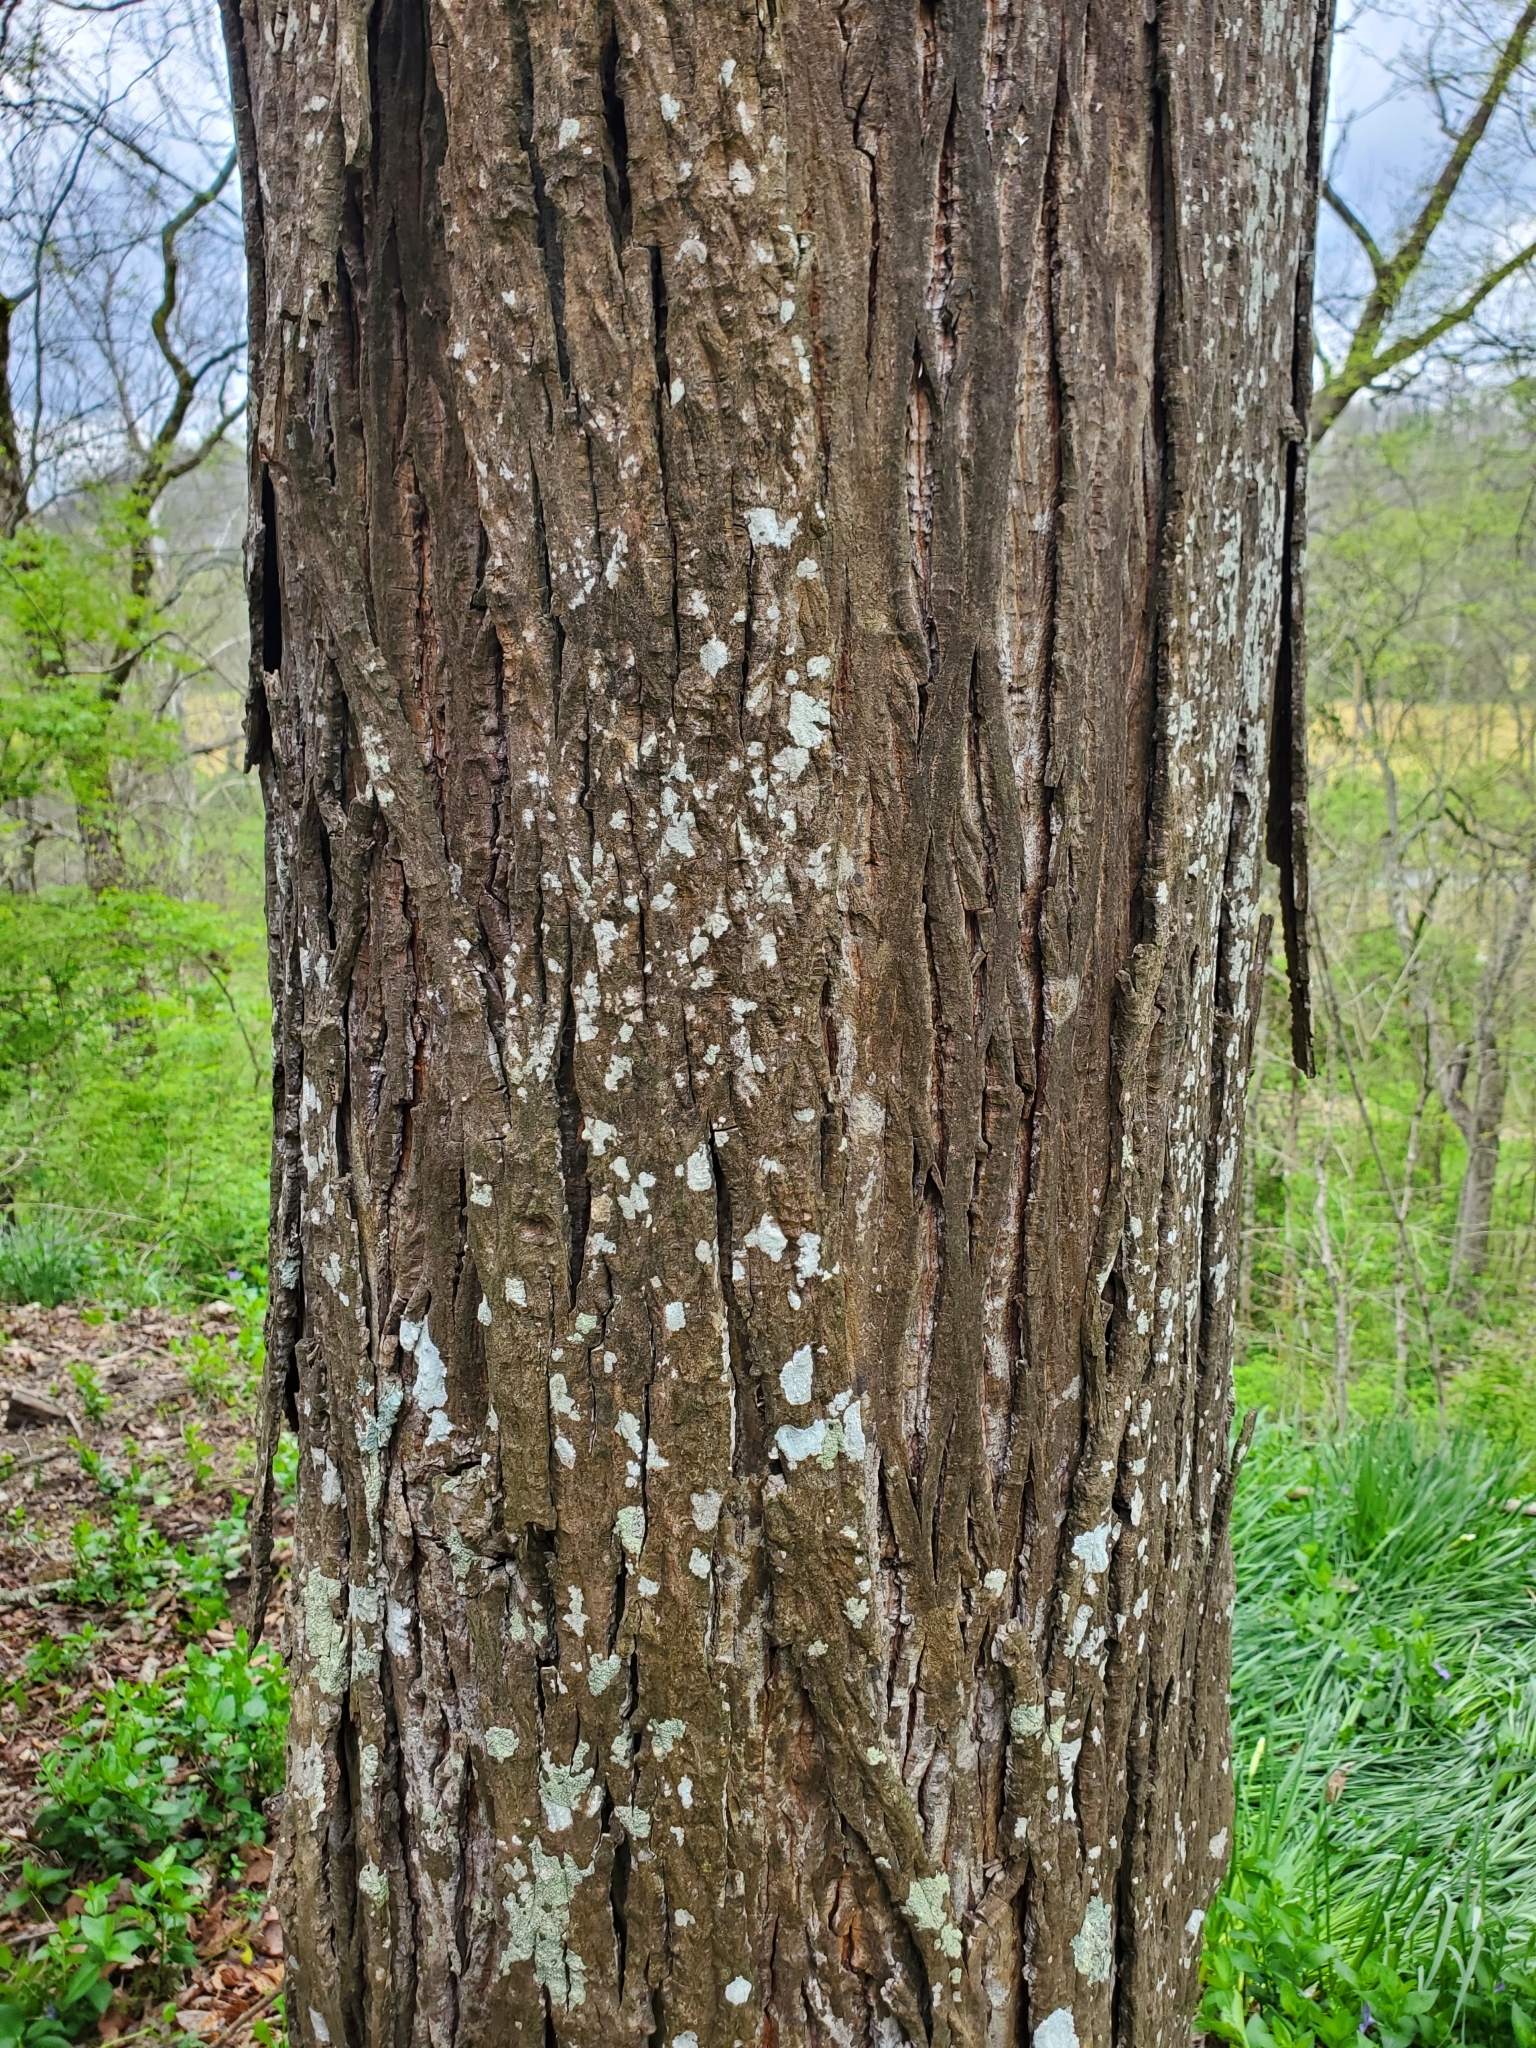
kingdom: Plantae
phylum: Tracheophyta
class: Magnoliopsida
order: Fagales
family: Juglandaceae
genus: Carya
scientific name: Carya ovata
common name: Shagbark hickory
